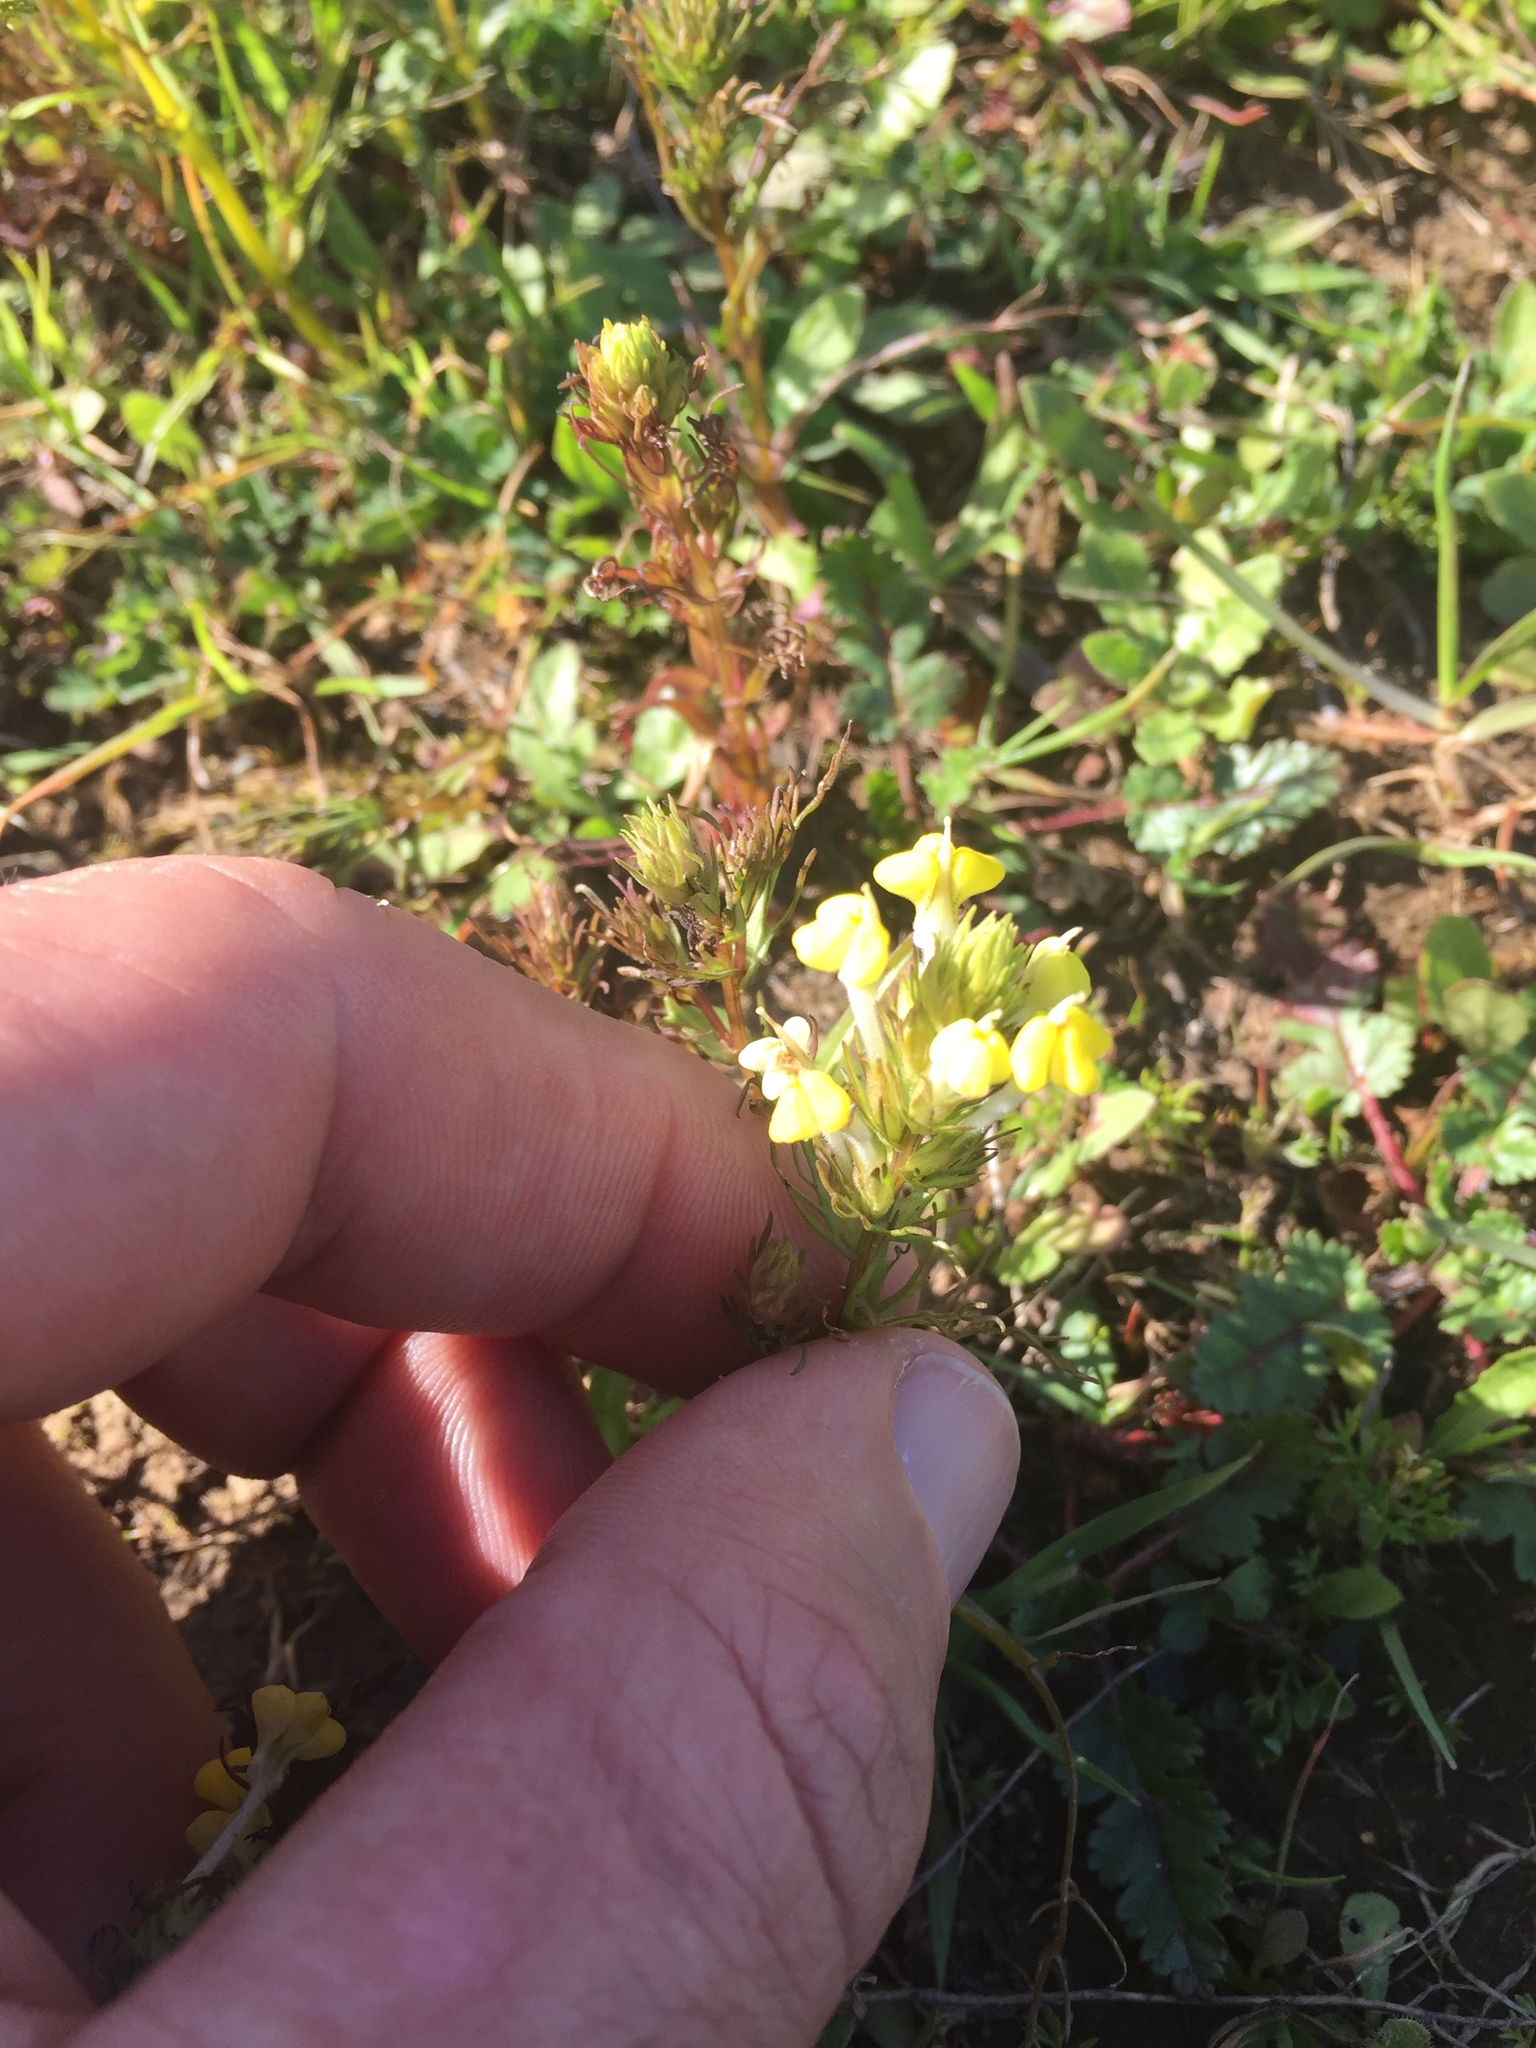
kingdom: Plantae
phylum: Tracheophyta
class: Magnoliopsida
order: Lamiales
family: Orobanchaceae
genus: Triphysaria
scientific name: Triphysaria versicolor
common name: Bearded false owl-clover
